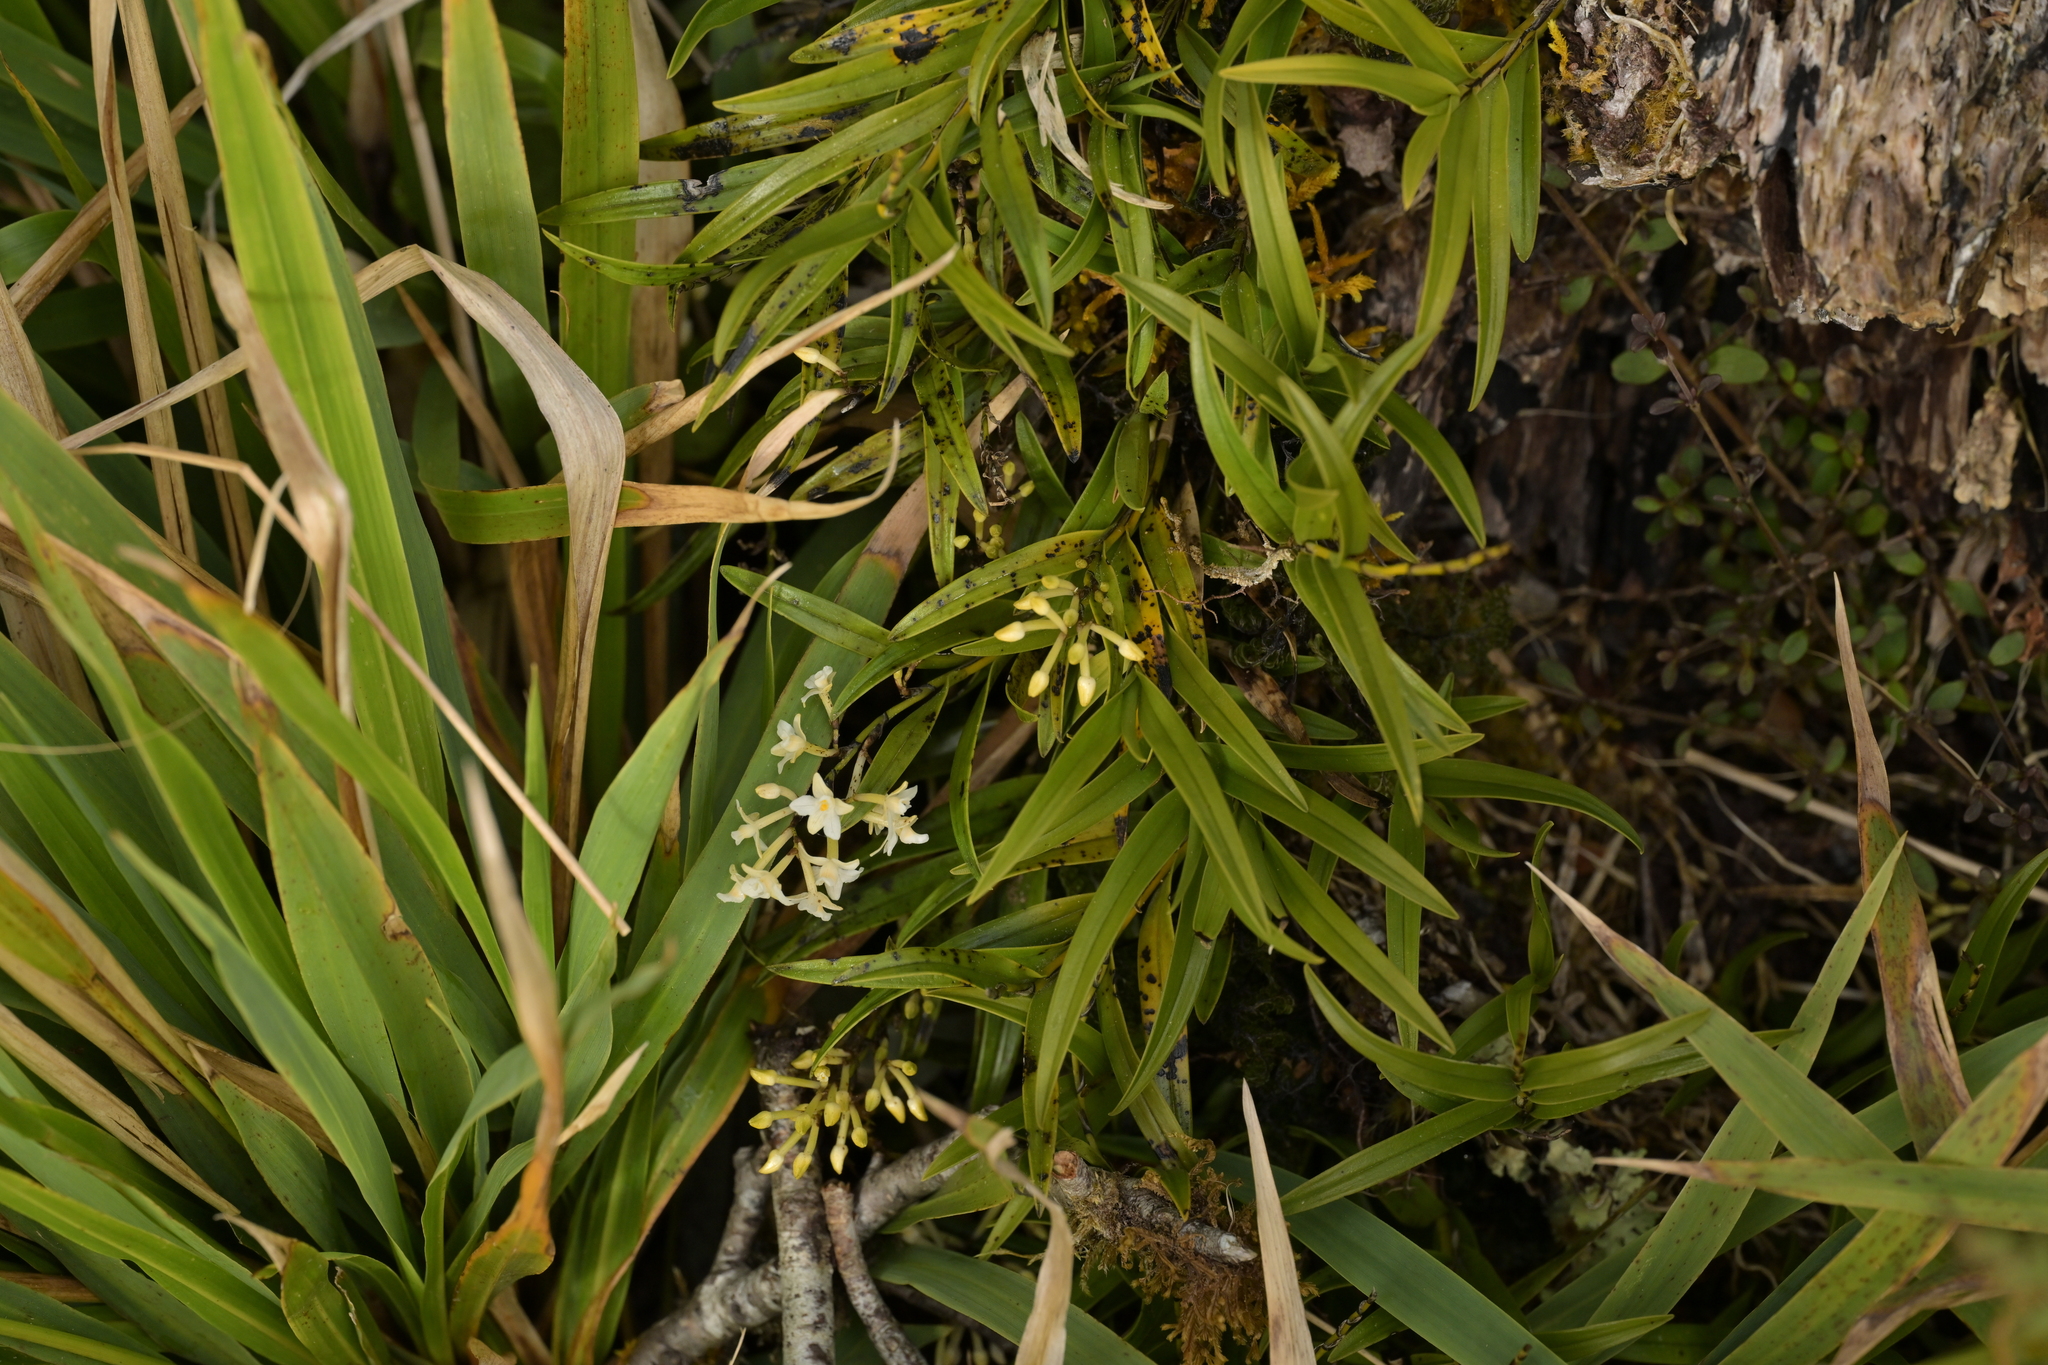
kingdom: Plantae
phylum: Tracheophyta
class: Liliopsida
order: Asparagales
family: Orchidaceae
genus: Earina
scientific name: Earina autumnalis
